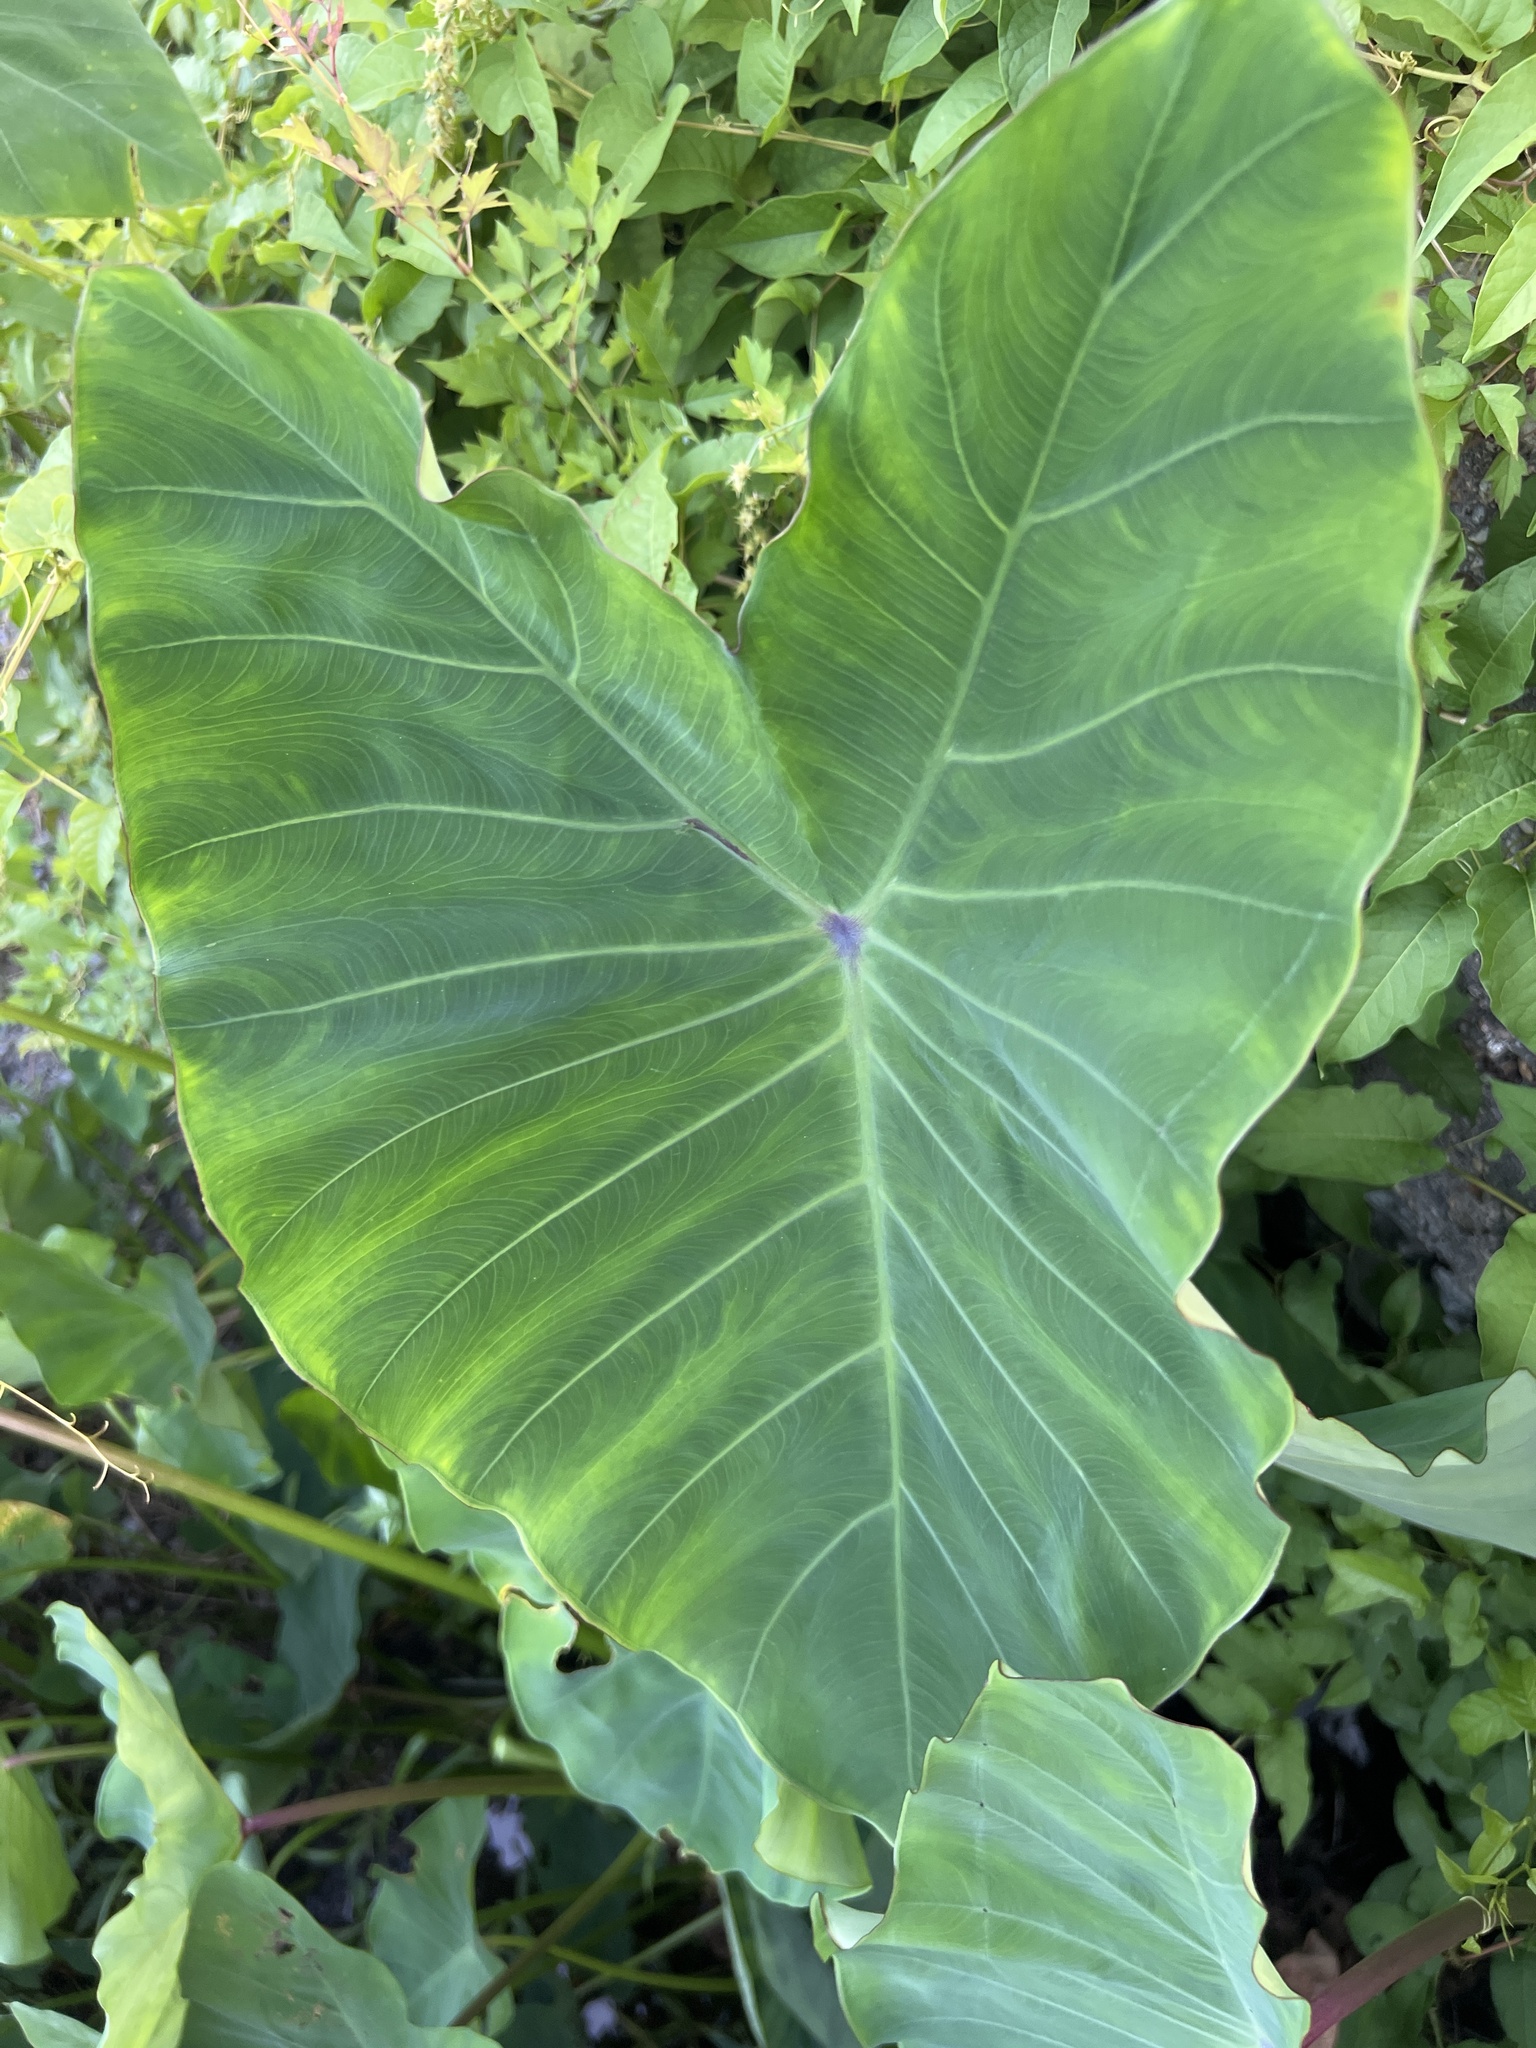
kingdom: Plantae
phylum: Tracheophyta
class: Liliopsida
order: Alismatales
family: Araceae
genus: Colocasia
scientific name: Colocasia esculenta
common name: Taro
